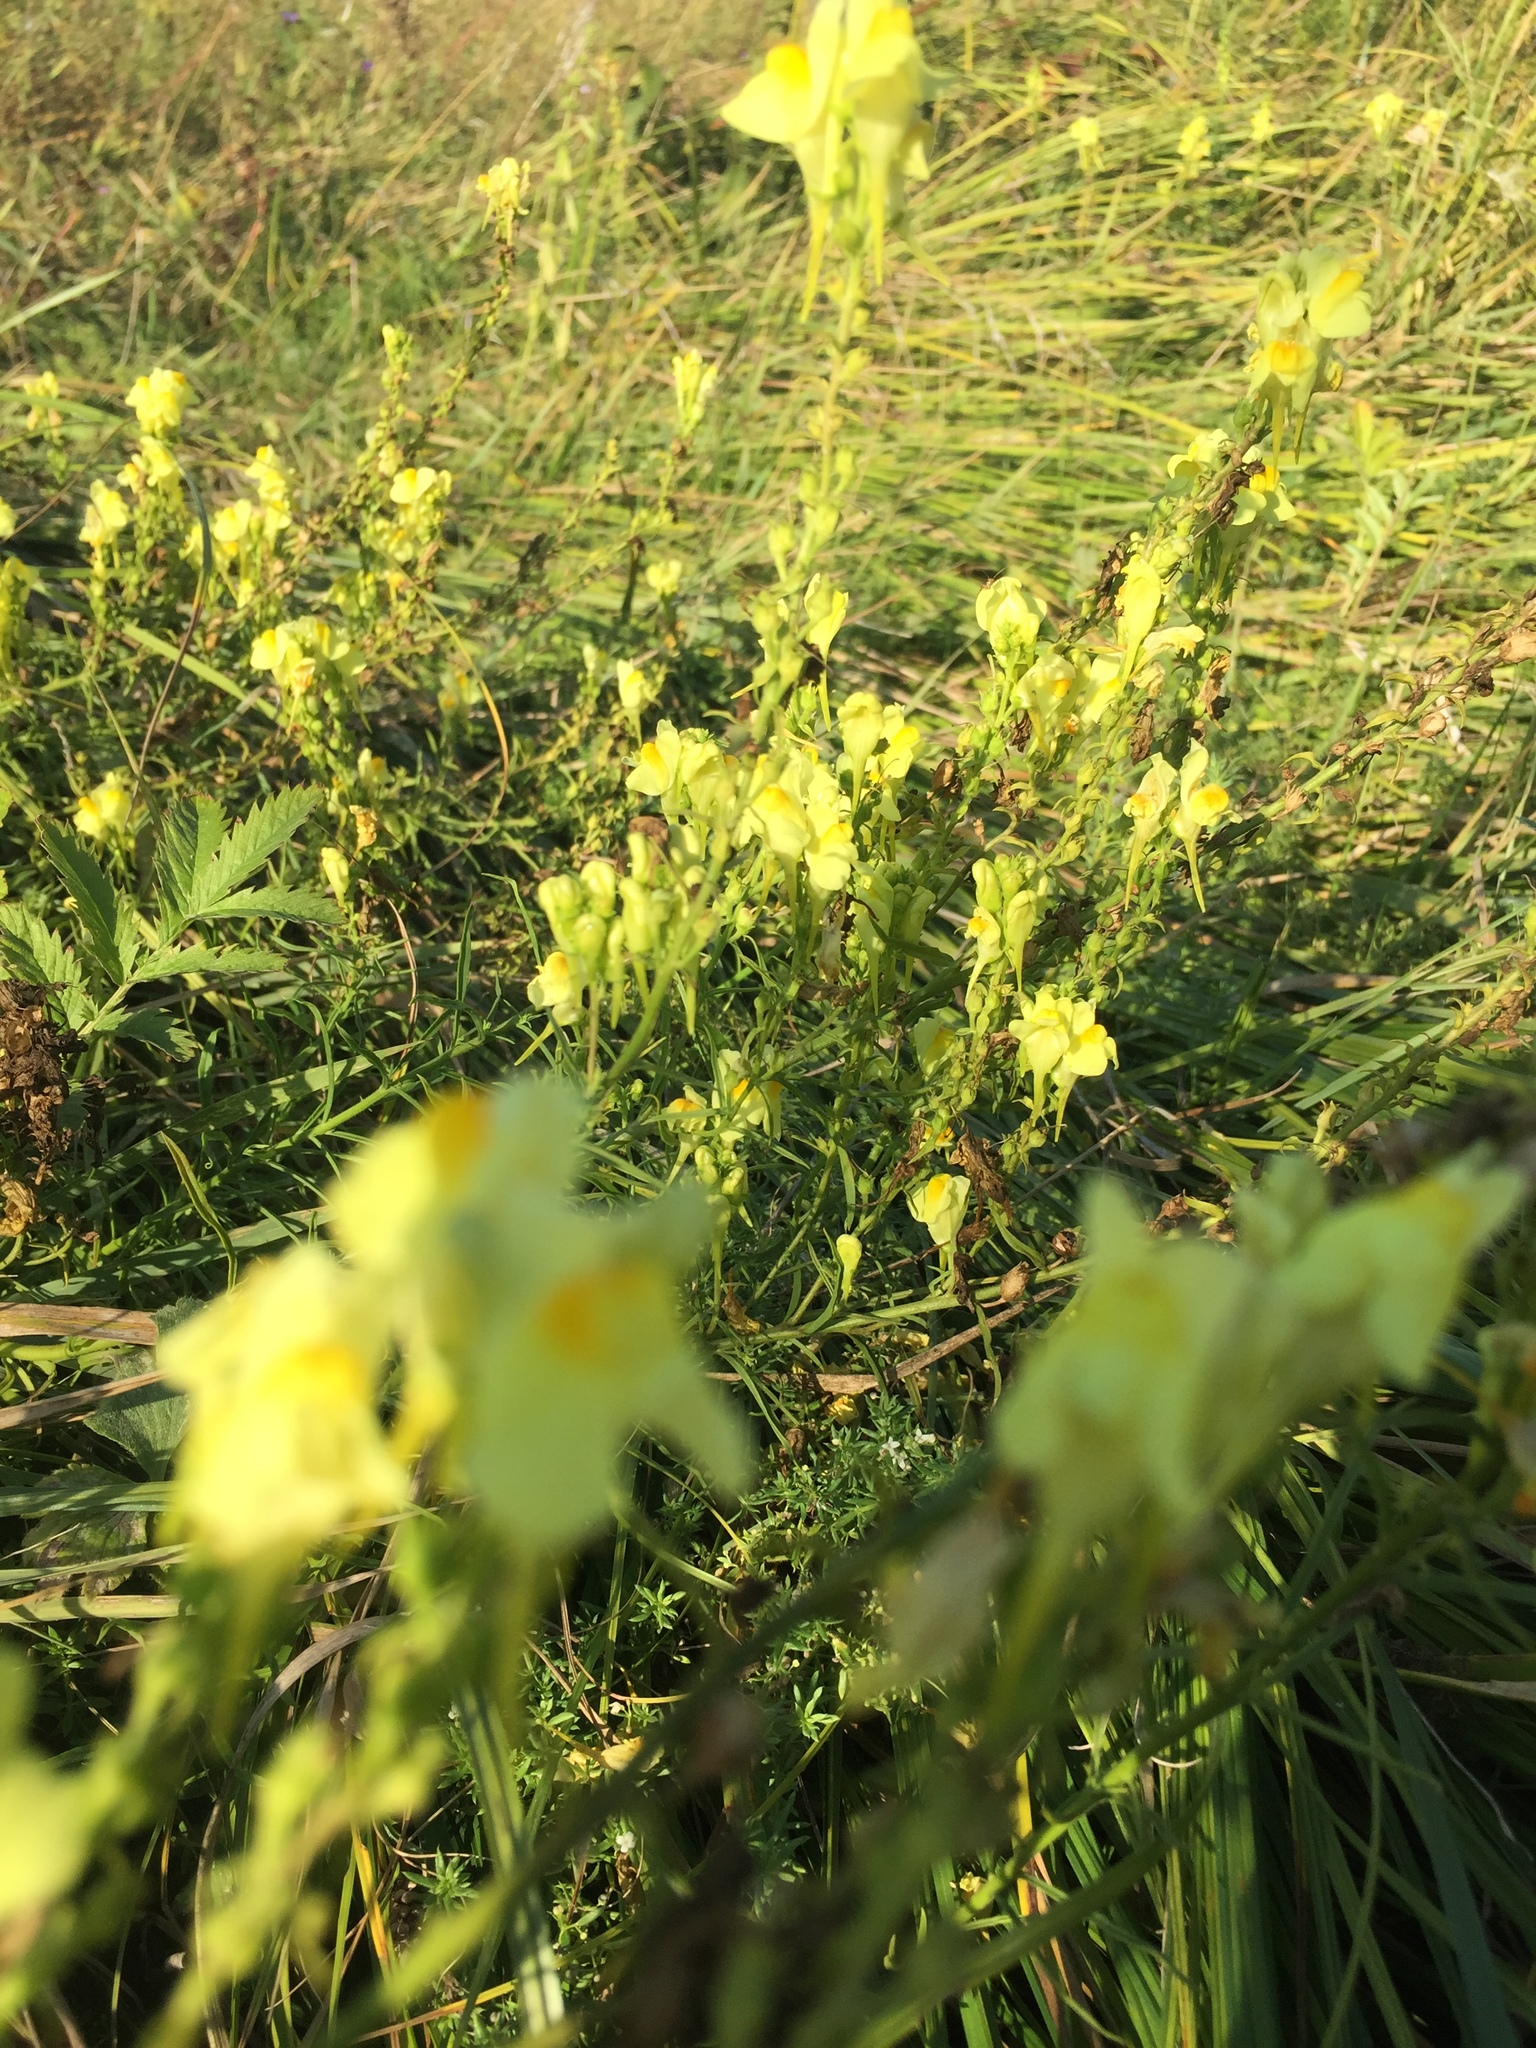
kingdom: Plantae
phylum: Tracheophyta
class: Magnoliopsida
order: Lamiales
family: Plantaginaceae
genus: Linaria
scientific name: Linaria vulgaris
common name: Butter and eggs
